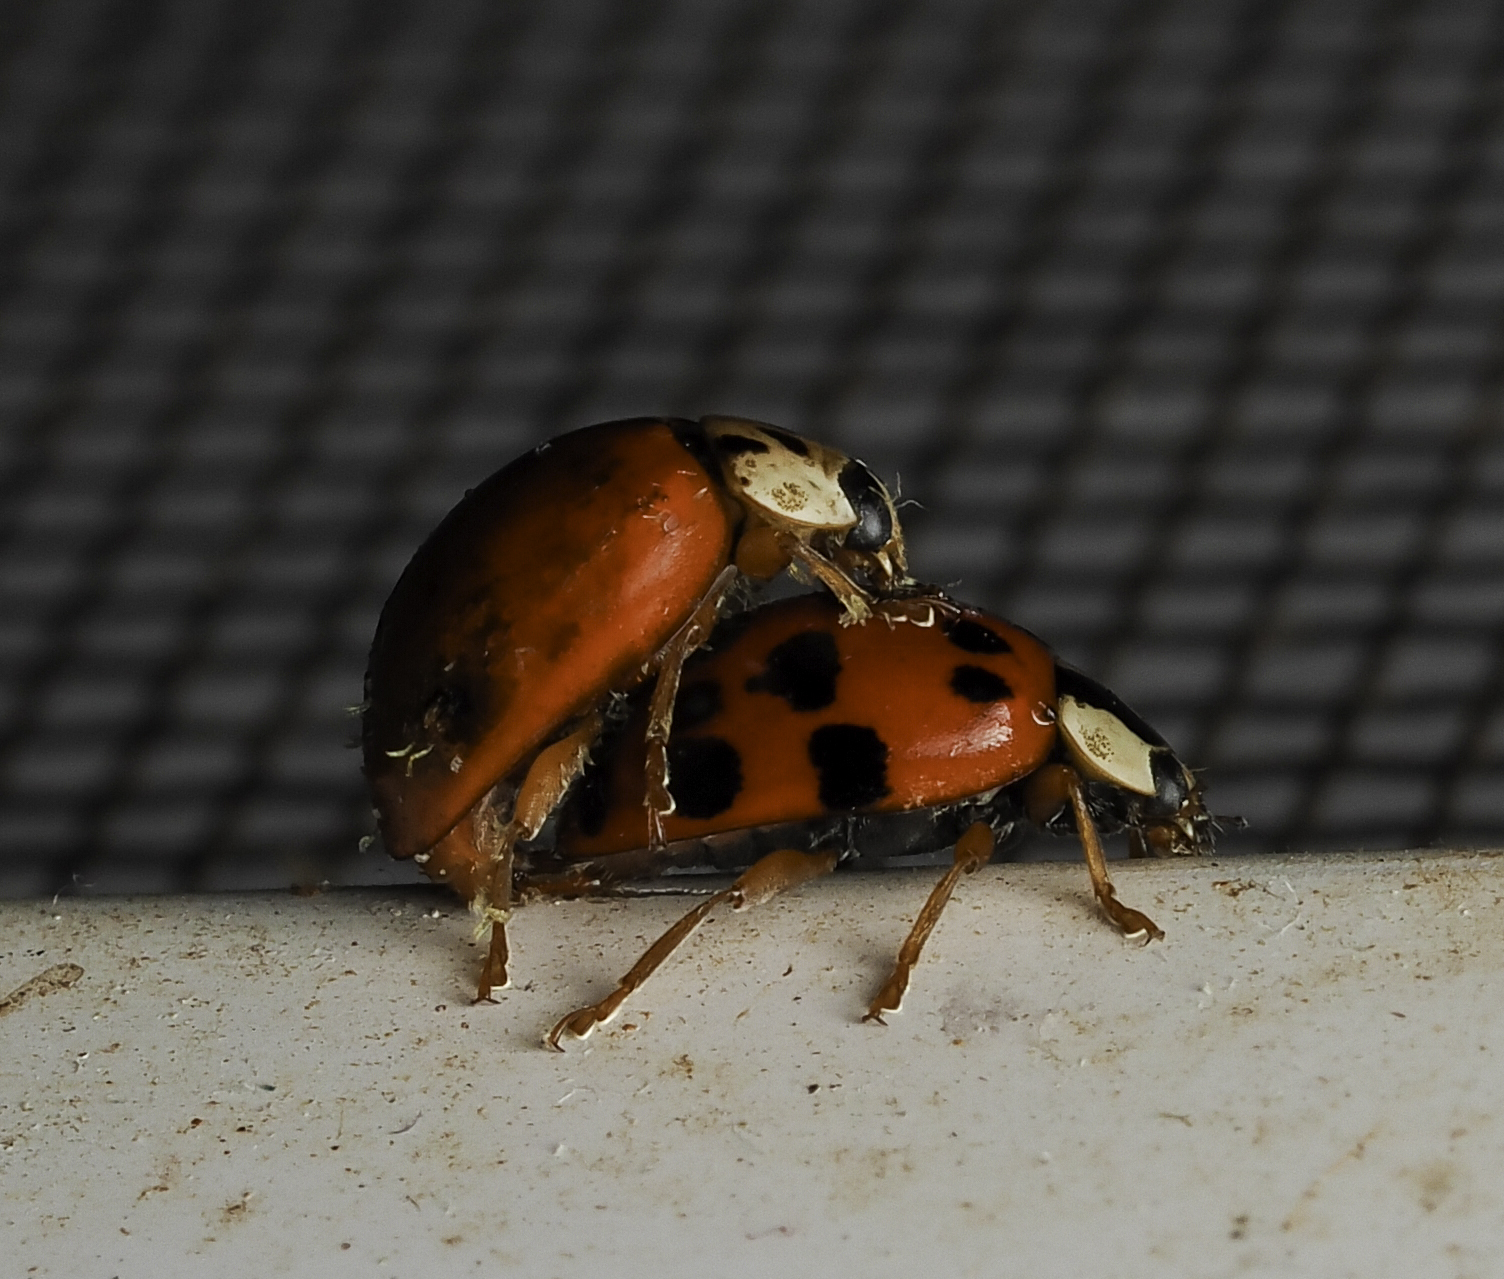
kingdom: Animalia
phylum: Arthropoda
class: Insecta
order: Coleoptera
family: Coccinellidae
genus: Harmonia
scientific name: Harmonia axyridis
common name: Harlequin ladybird
